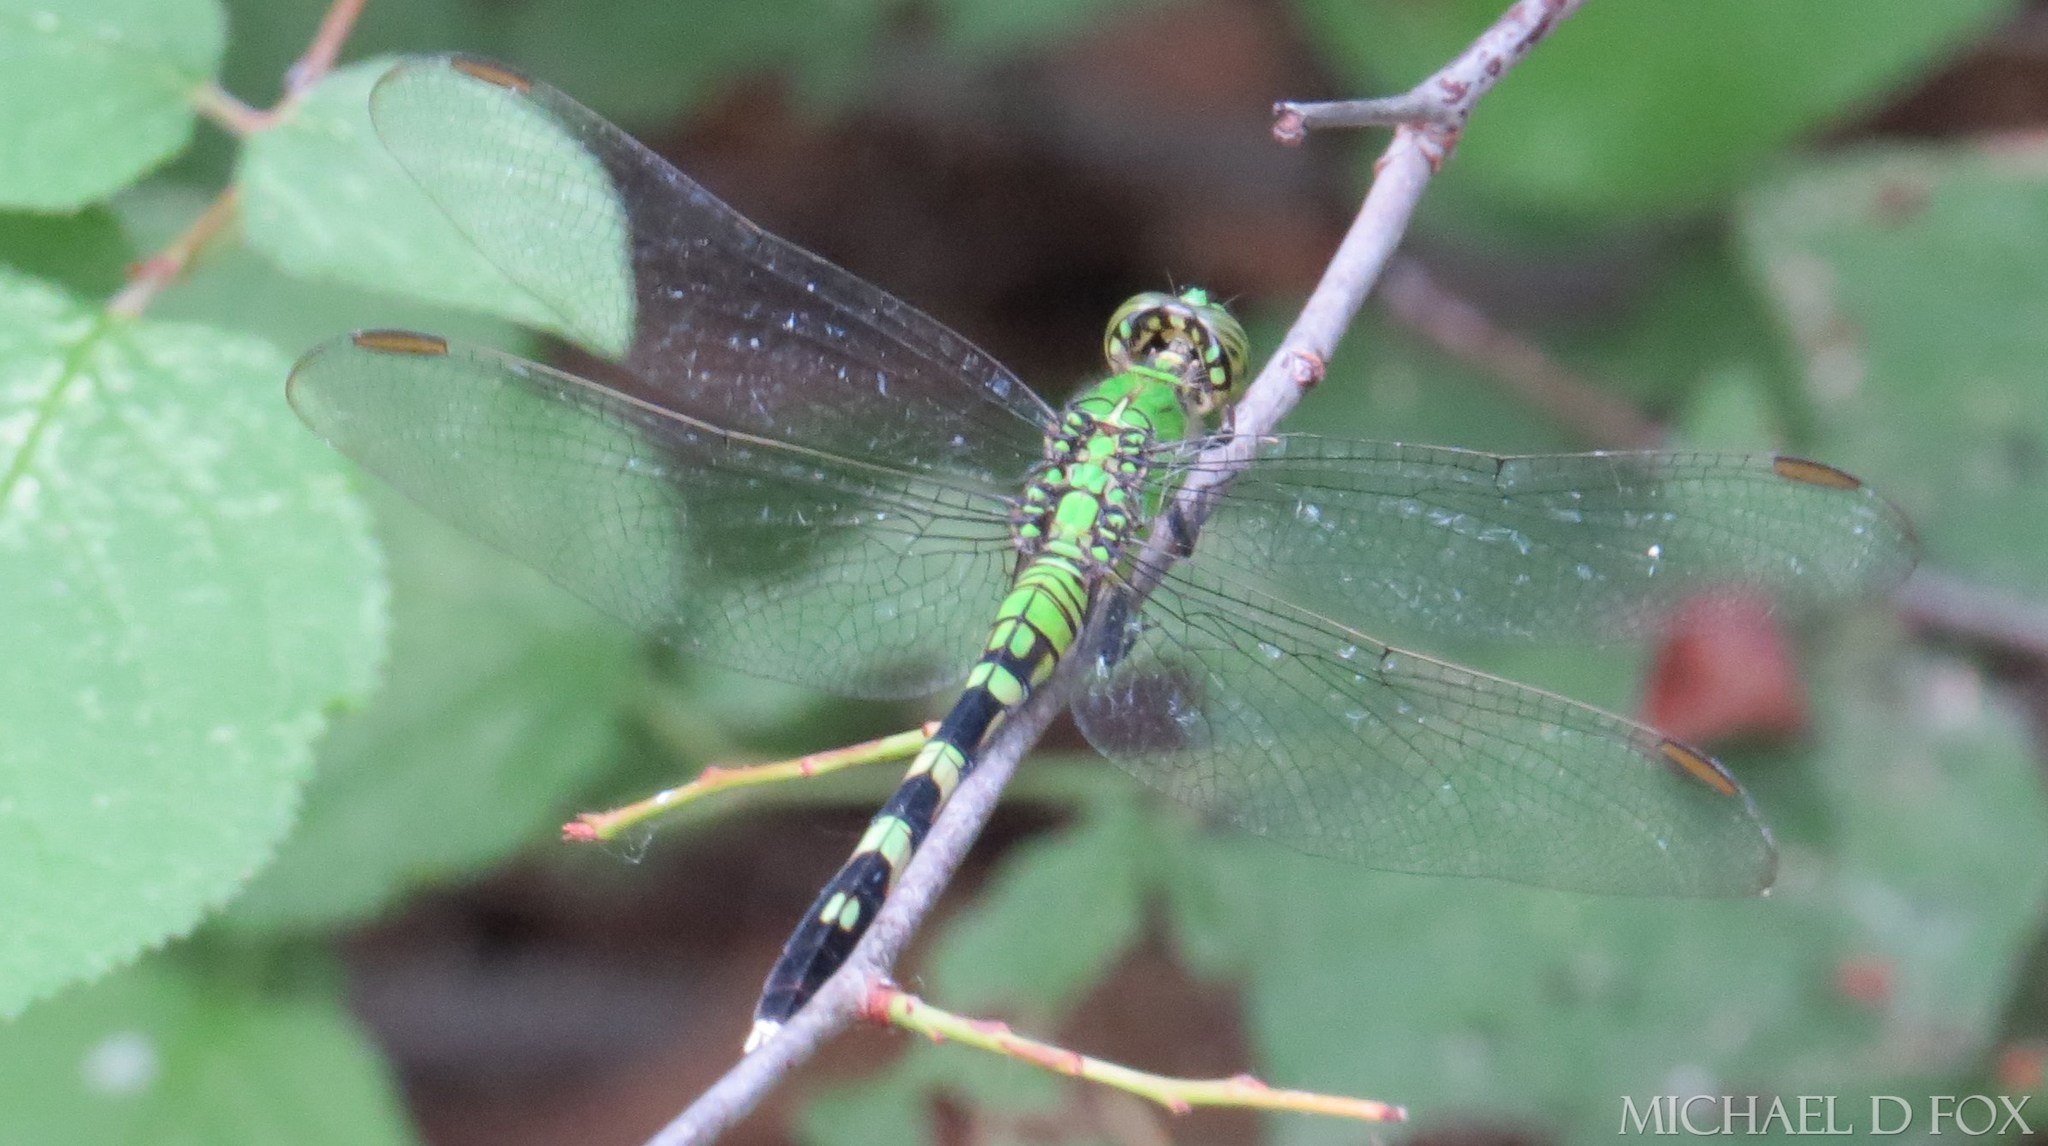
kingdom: Animalia
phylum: Arthropoda
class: Insecta
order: Odonata
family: Libellulidae
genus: Erythemis
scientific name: Erythemis simplicicollis
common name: Eastern pondhawk
